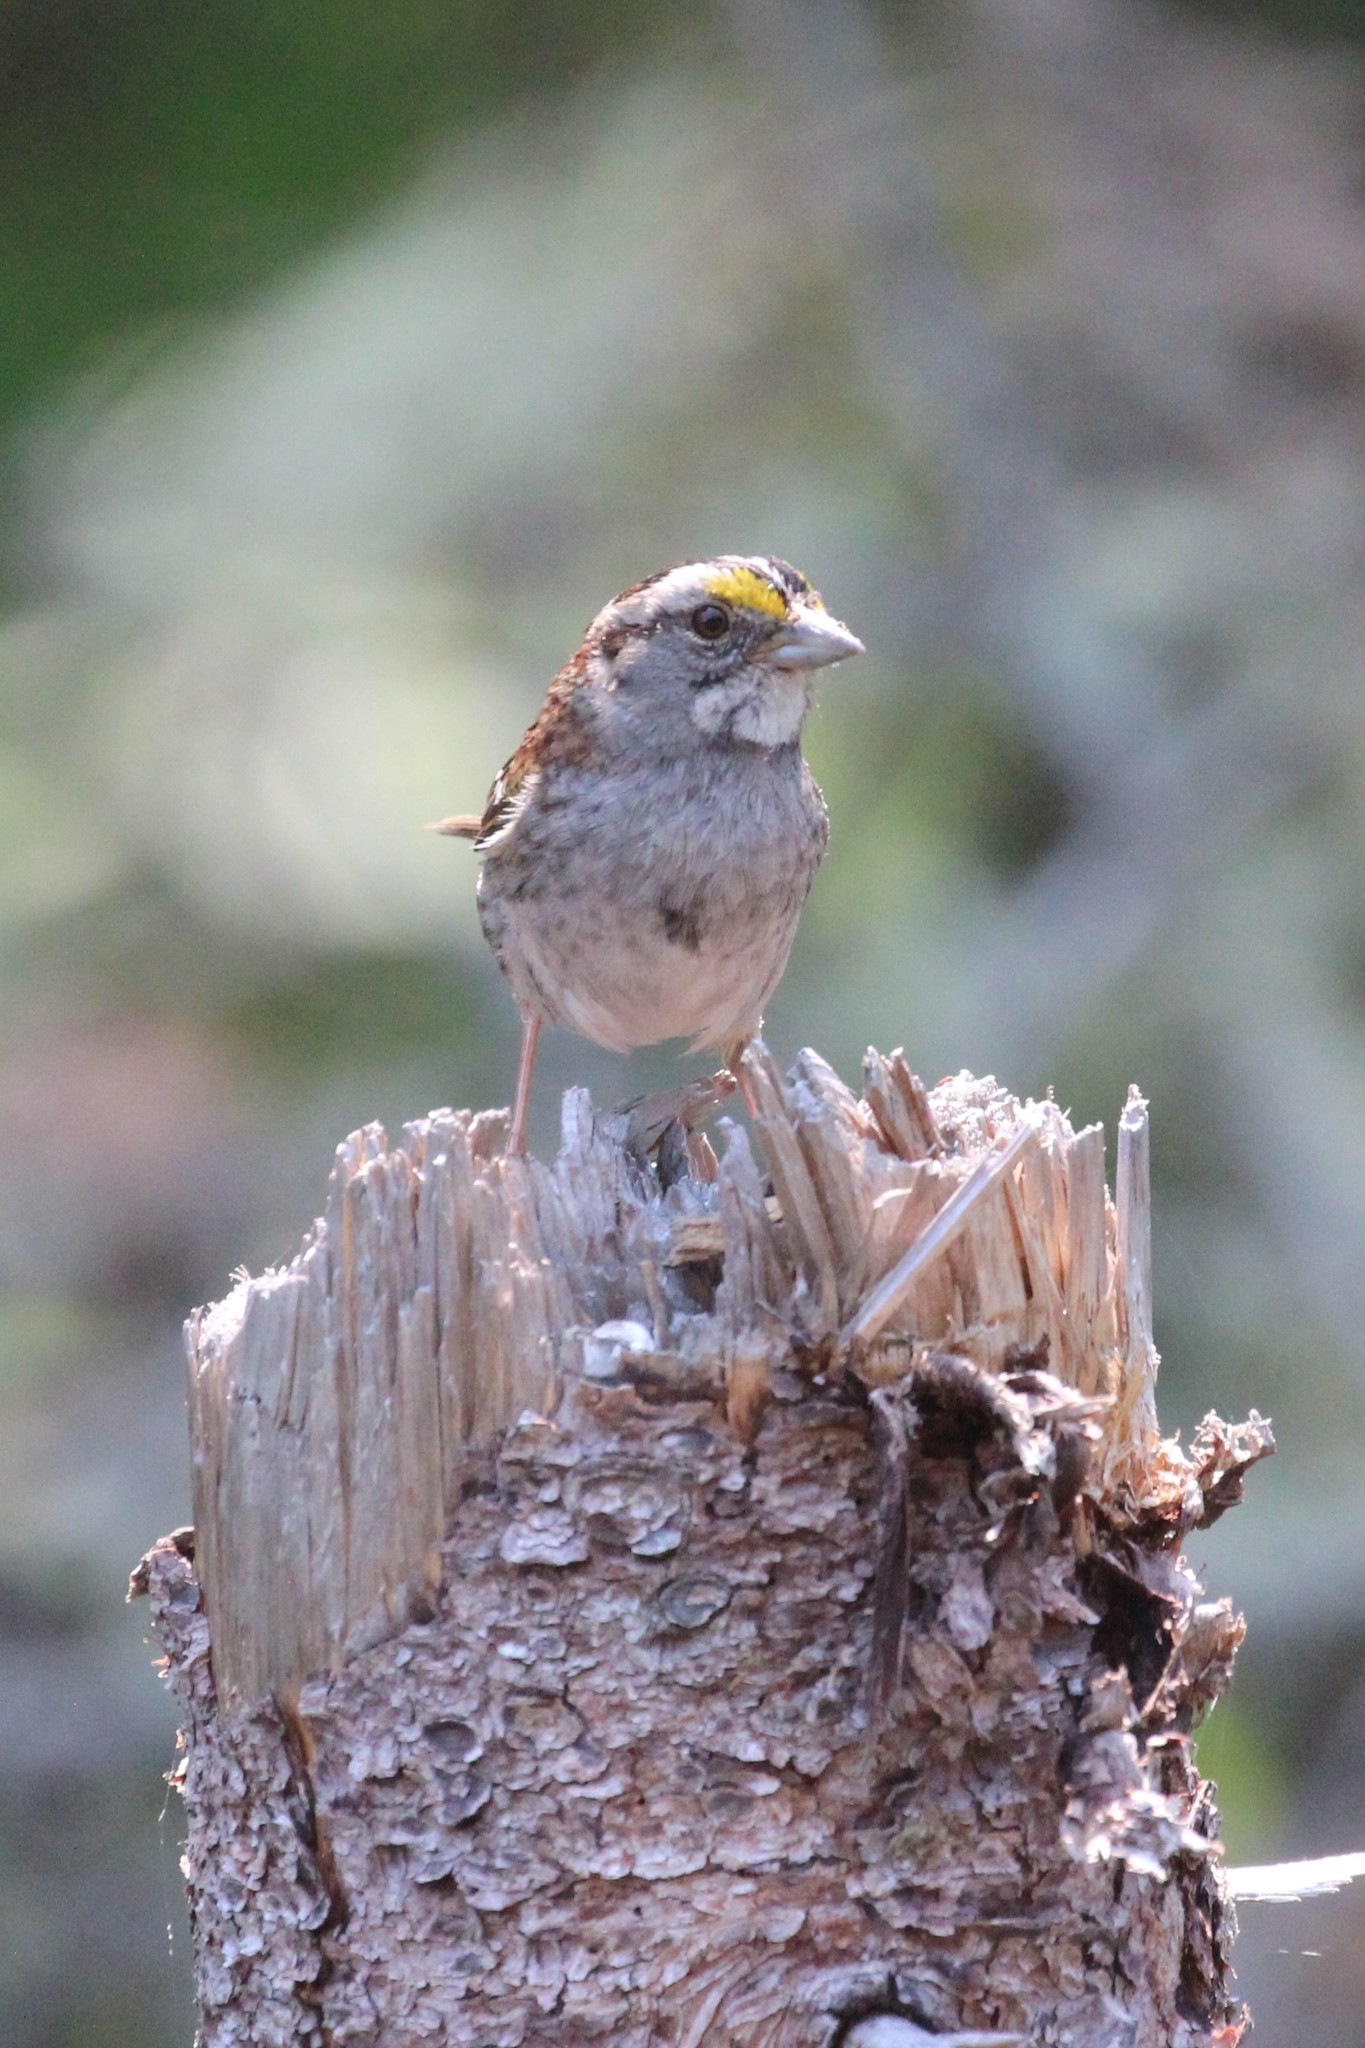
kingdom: Animalia
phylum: Chordata
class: Aves
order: Passeriformes
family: Passerellidae
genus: Zonotrichia
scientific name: Zonotrichia albicollis
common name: White-throated sparrow
